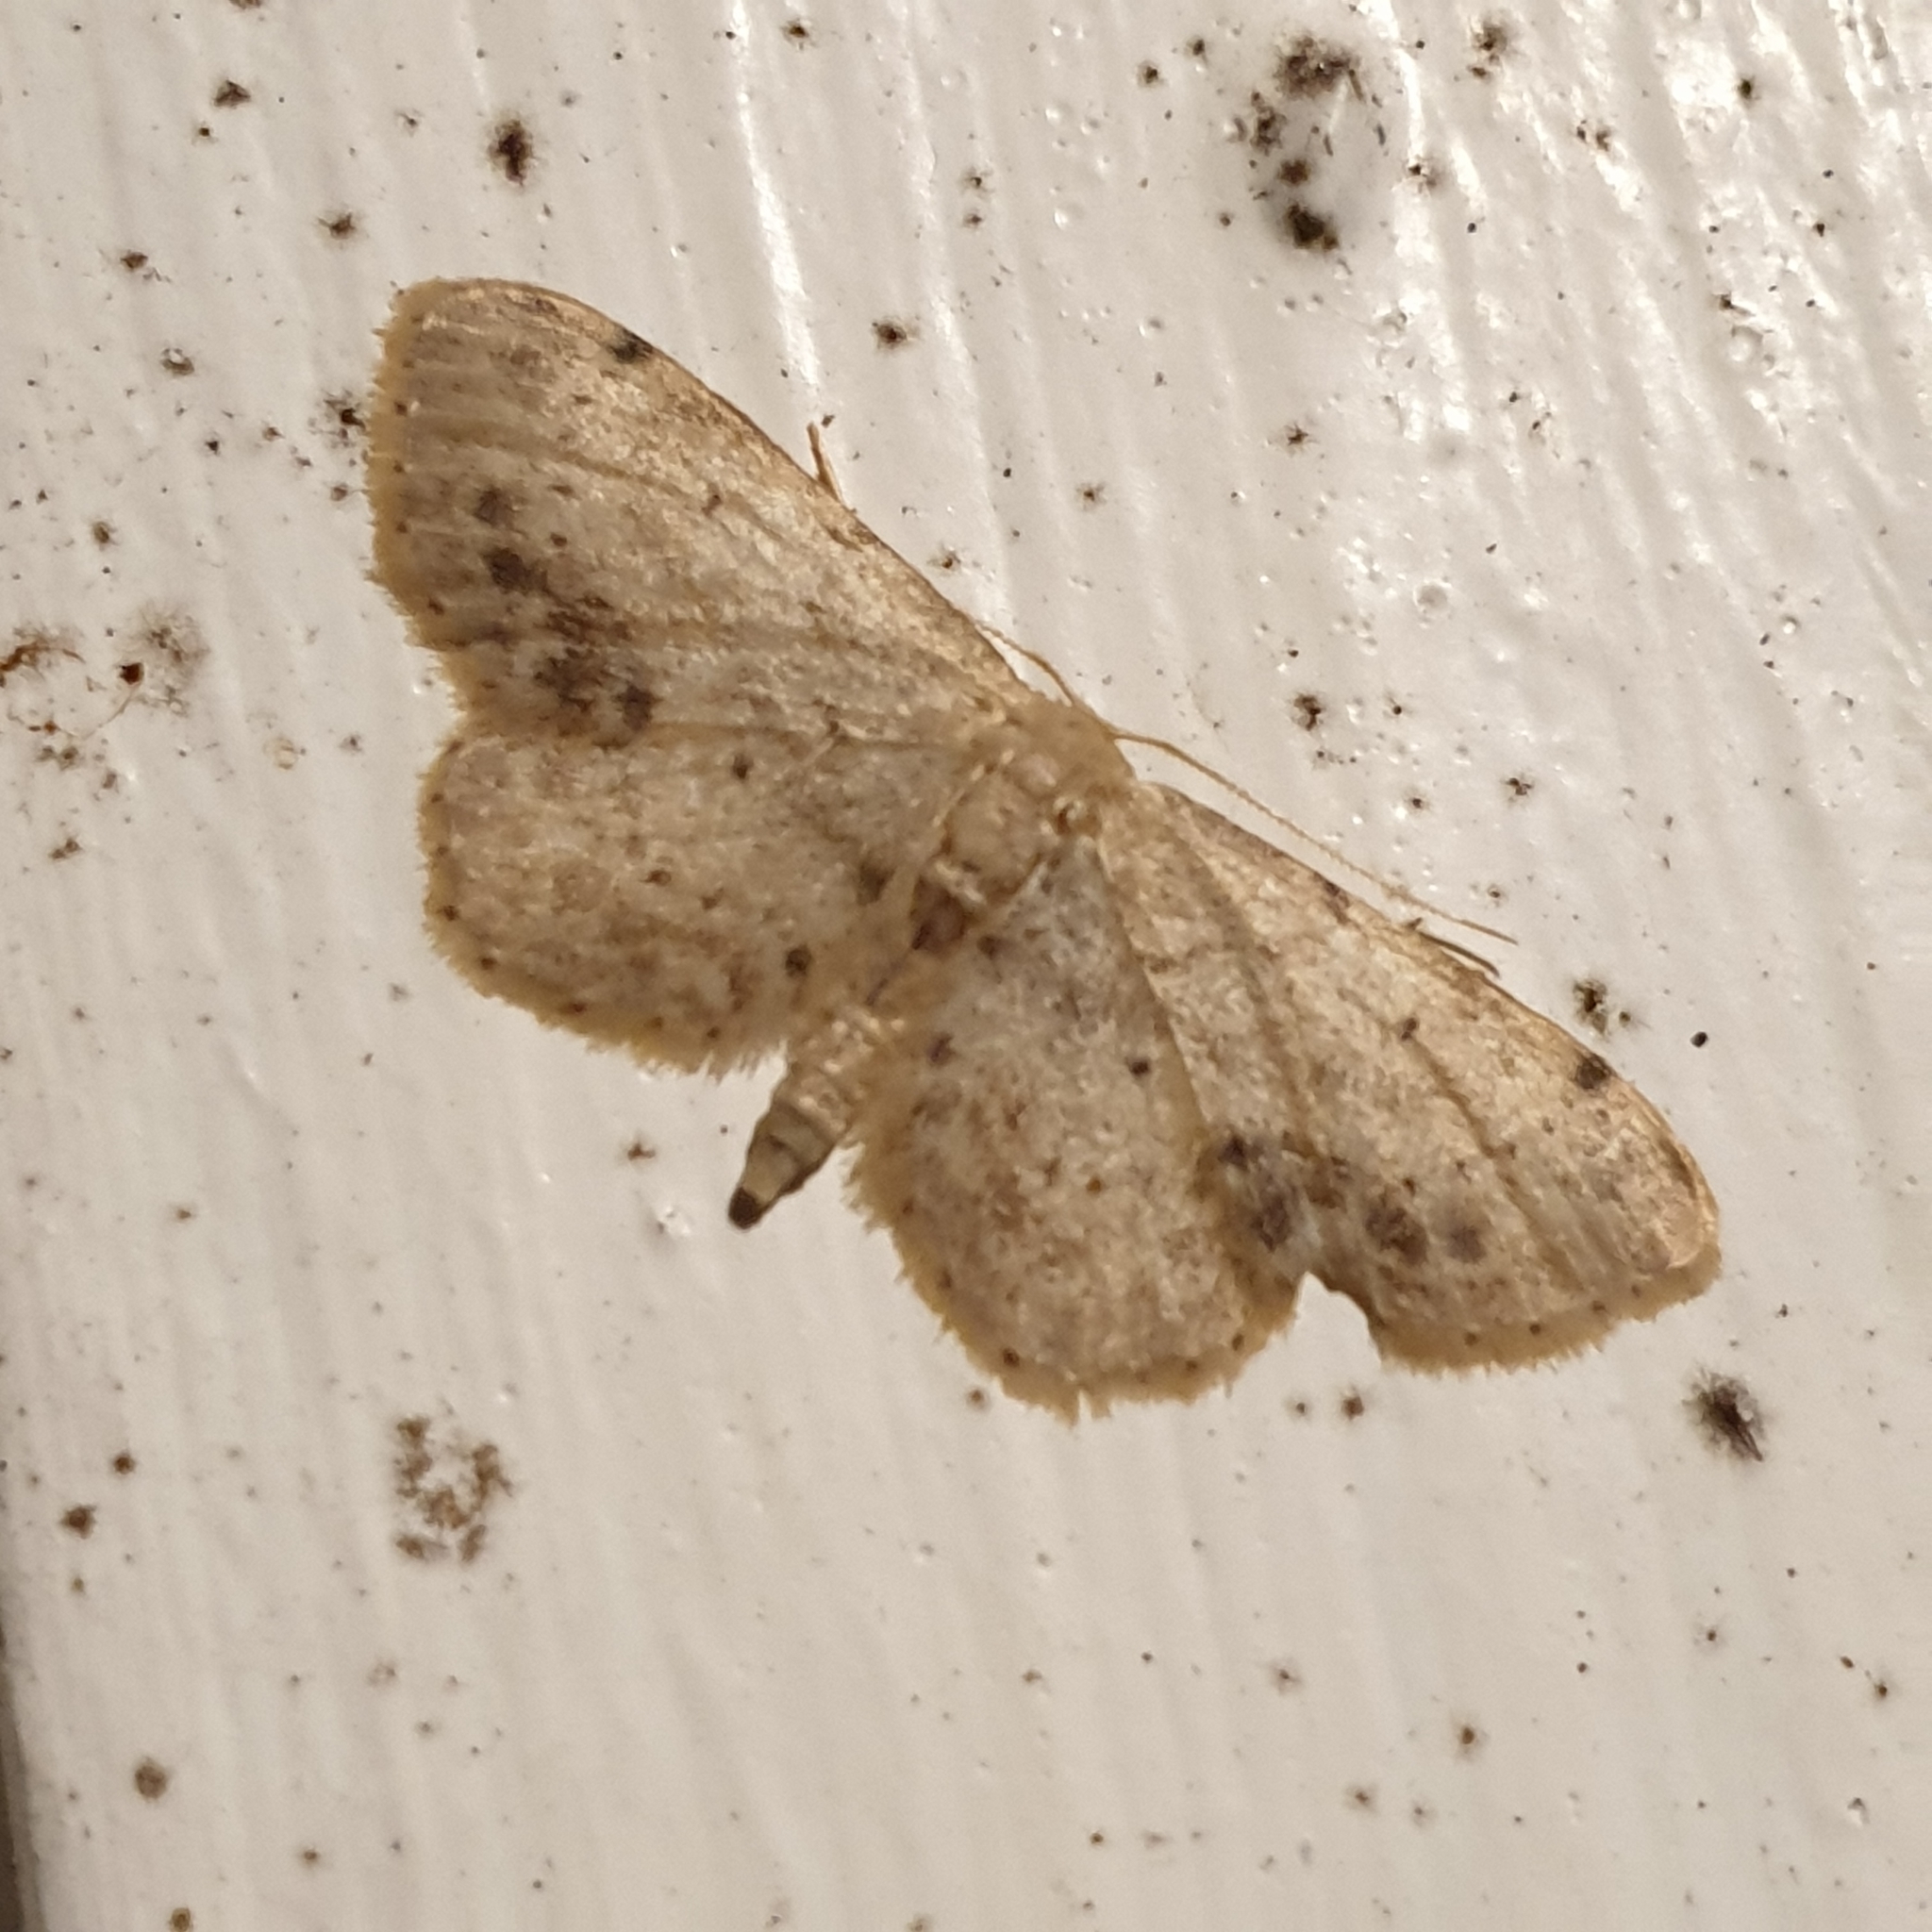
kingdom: Animalia
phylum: Arthropoda
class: Insecta
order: Lepidoptera
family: Geometridae
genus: Idaea
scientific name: Idaea dimidiata
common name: Single-dotted wave
